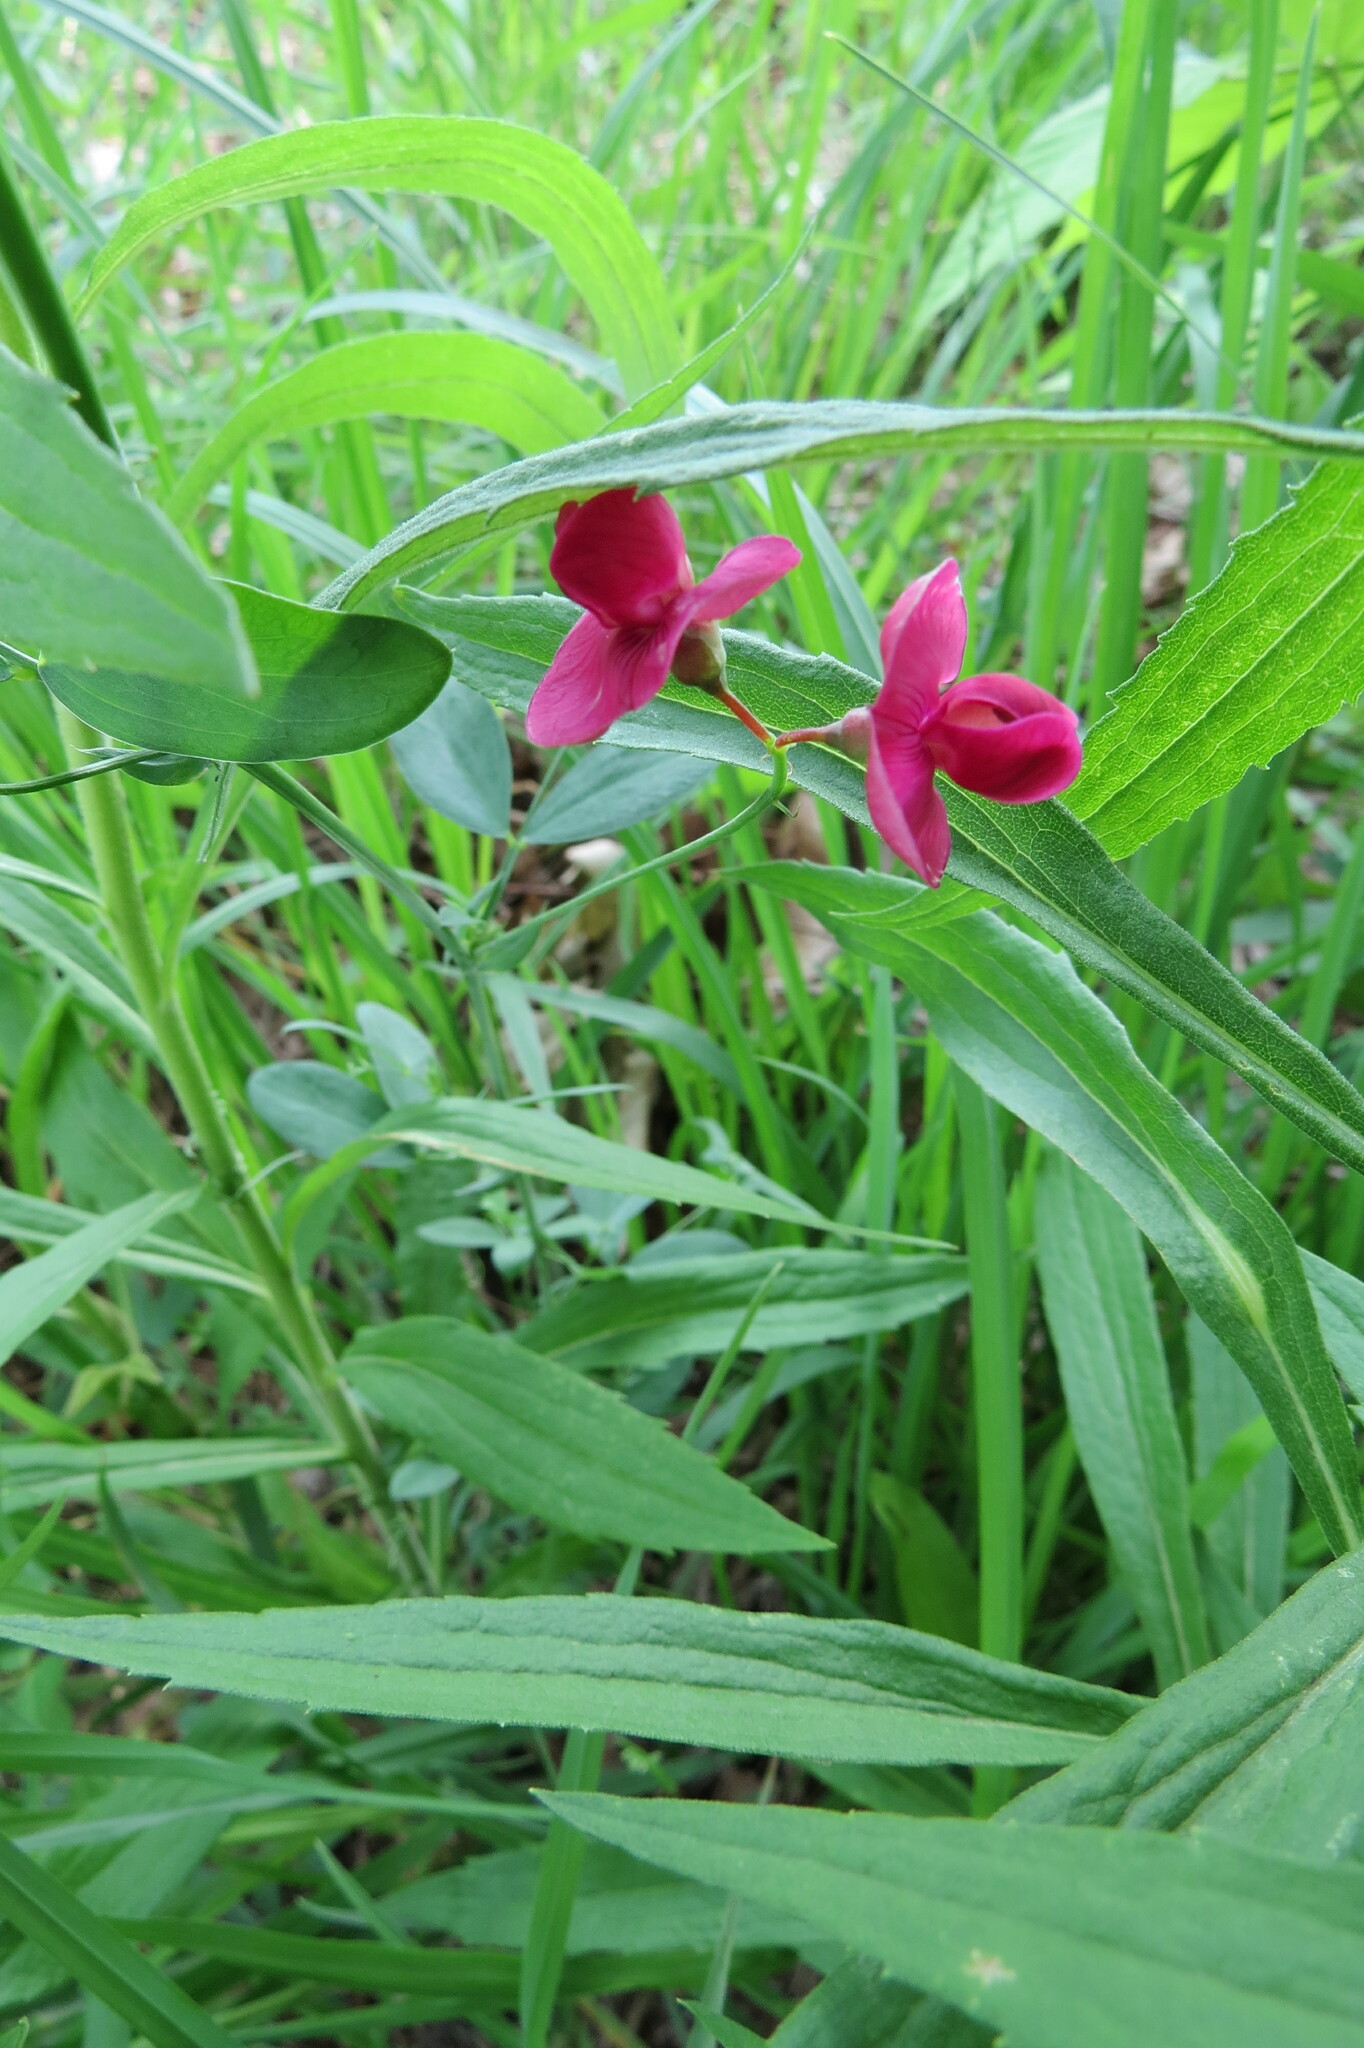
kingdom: Plantae
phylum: Tracheophyta
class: Magnoliopsida
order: Fabales
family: Fabaceae
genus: Lathyrus
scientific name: Lathyrus tuberosus
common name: Tuberous pea
